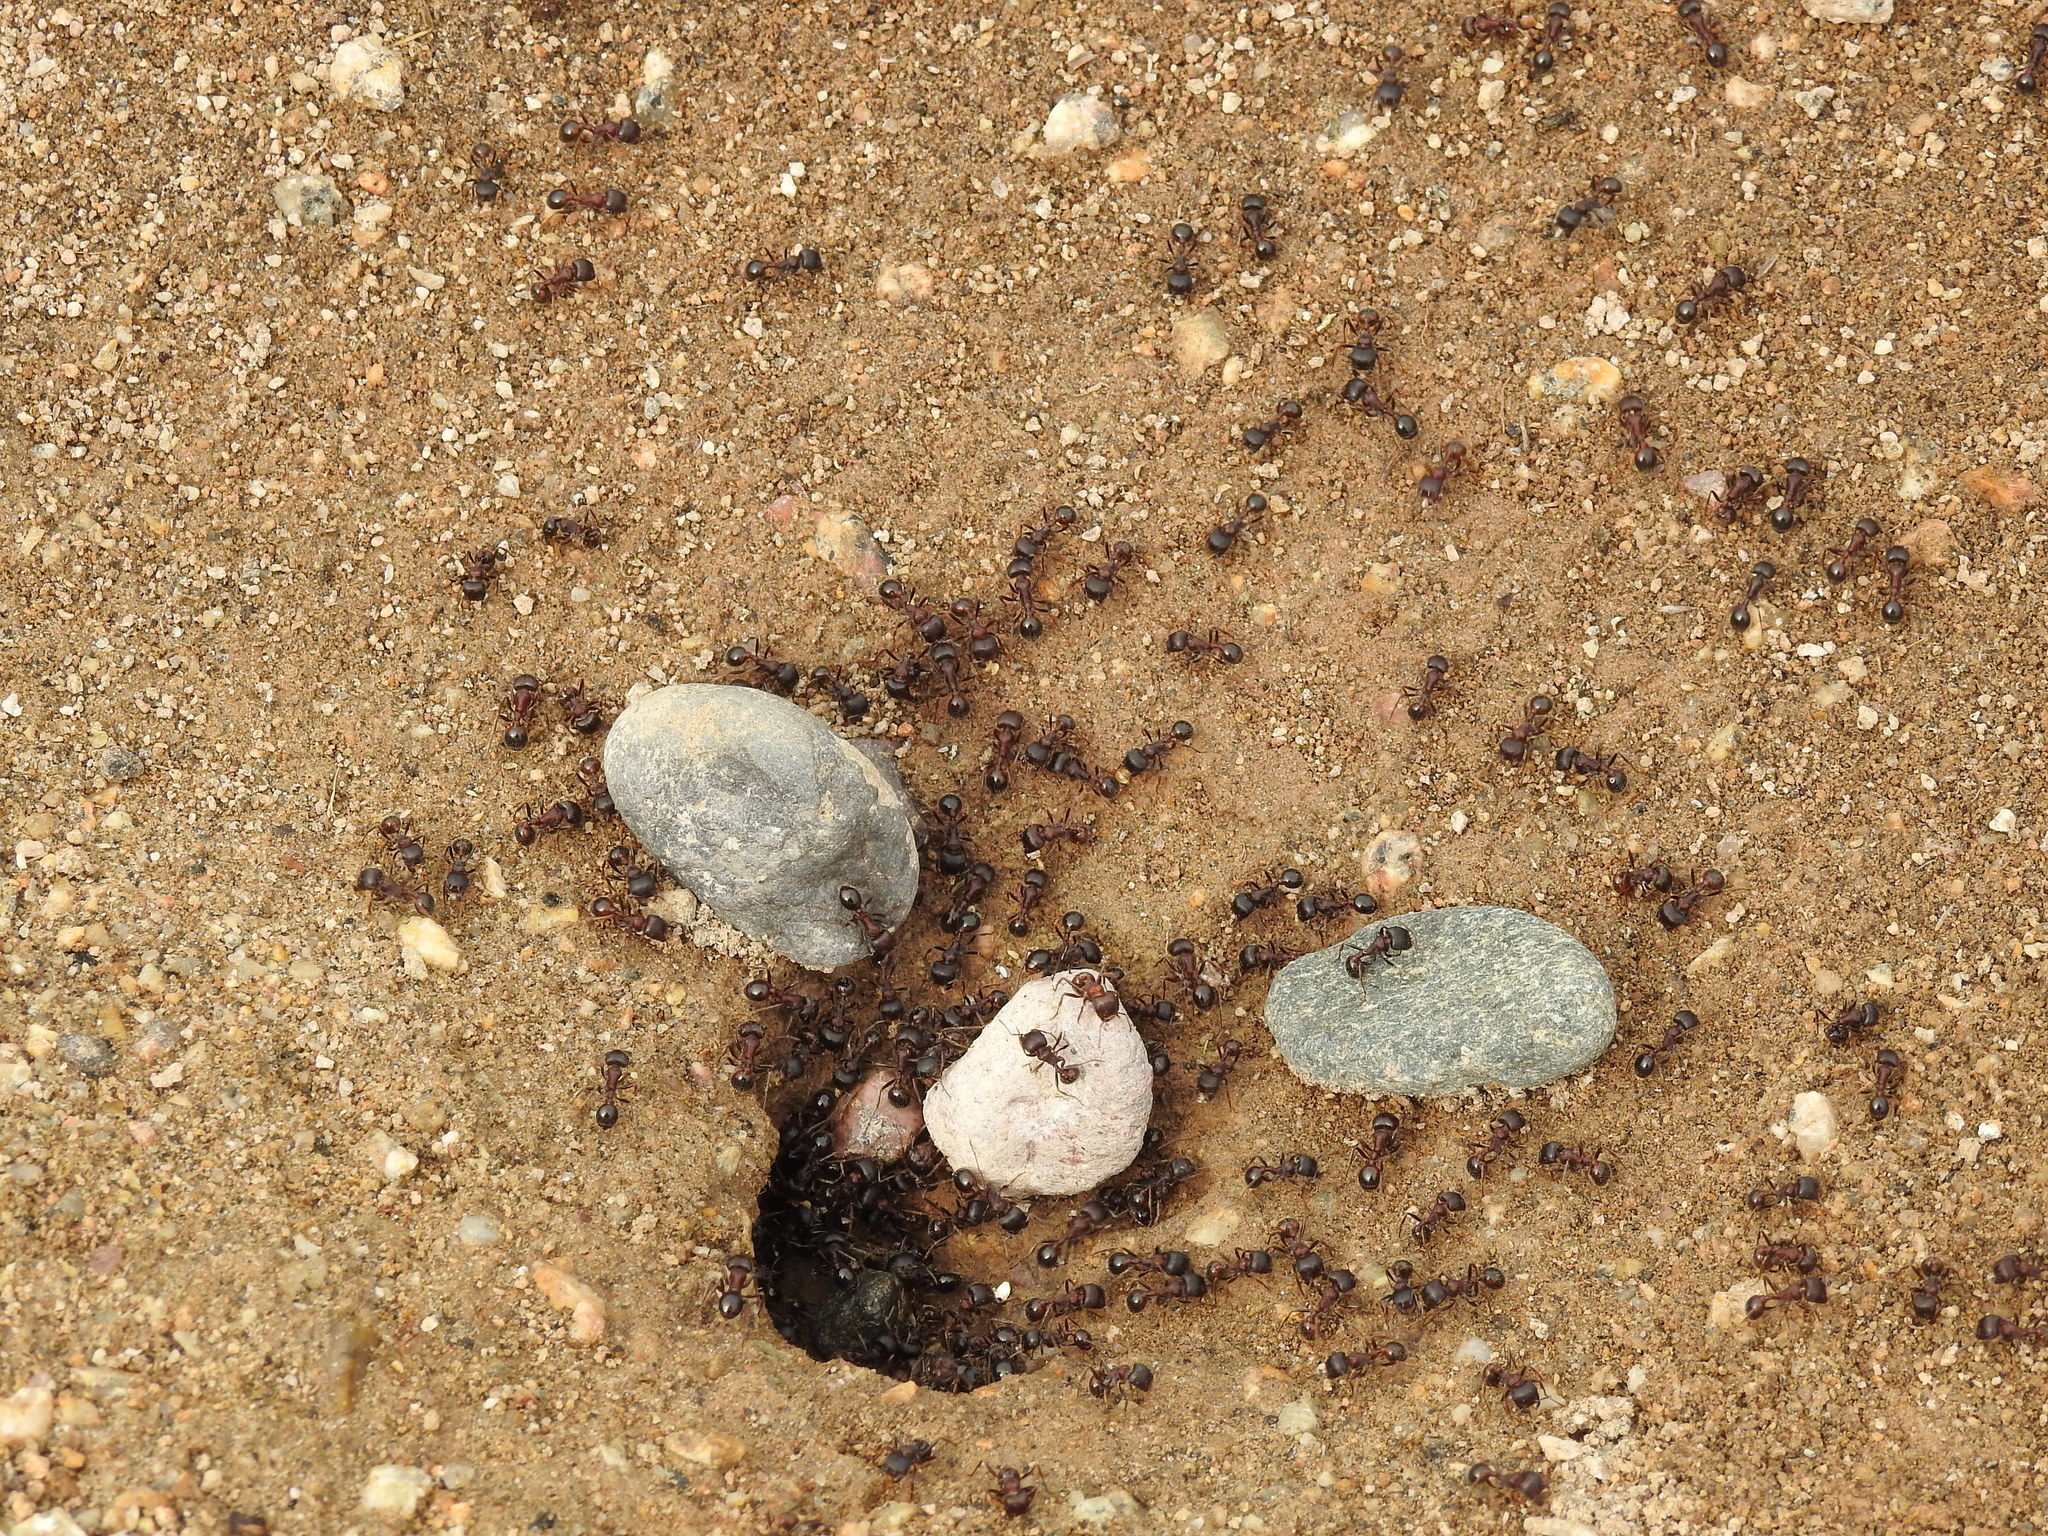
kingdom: Animalia
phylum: Arthropoda
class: Insecta
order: Hymenoptera
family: Formicidae
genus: Pogonomyrmex
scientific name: Pogonomyrmex rugosus
